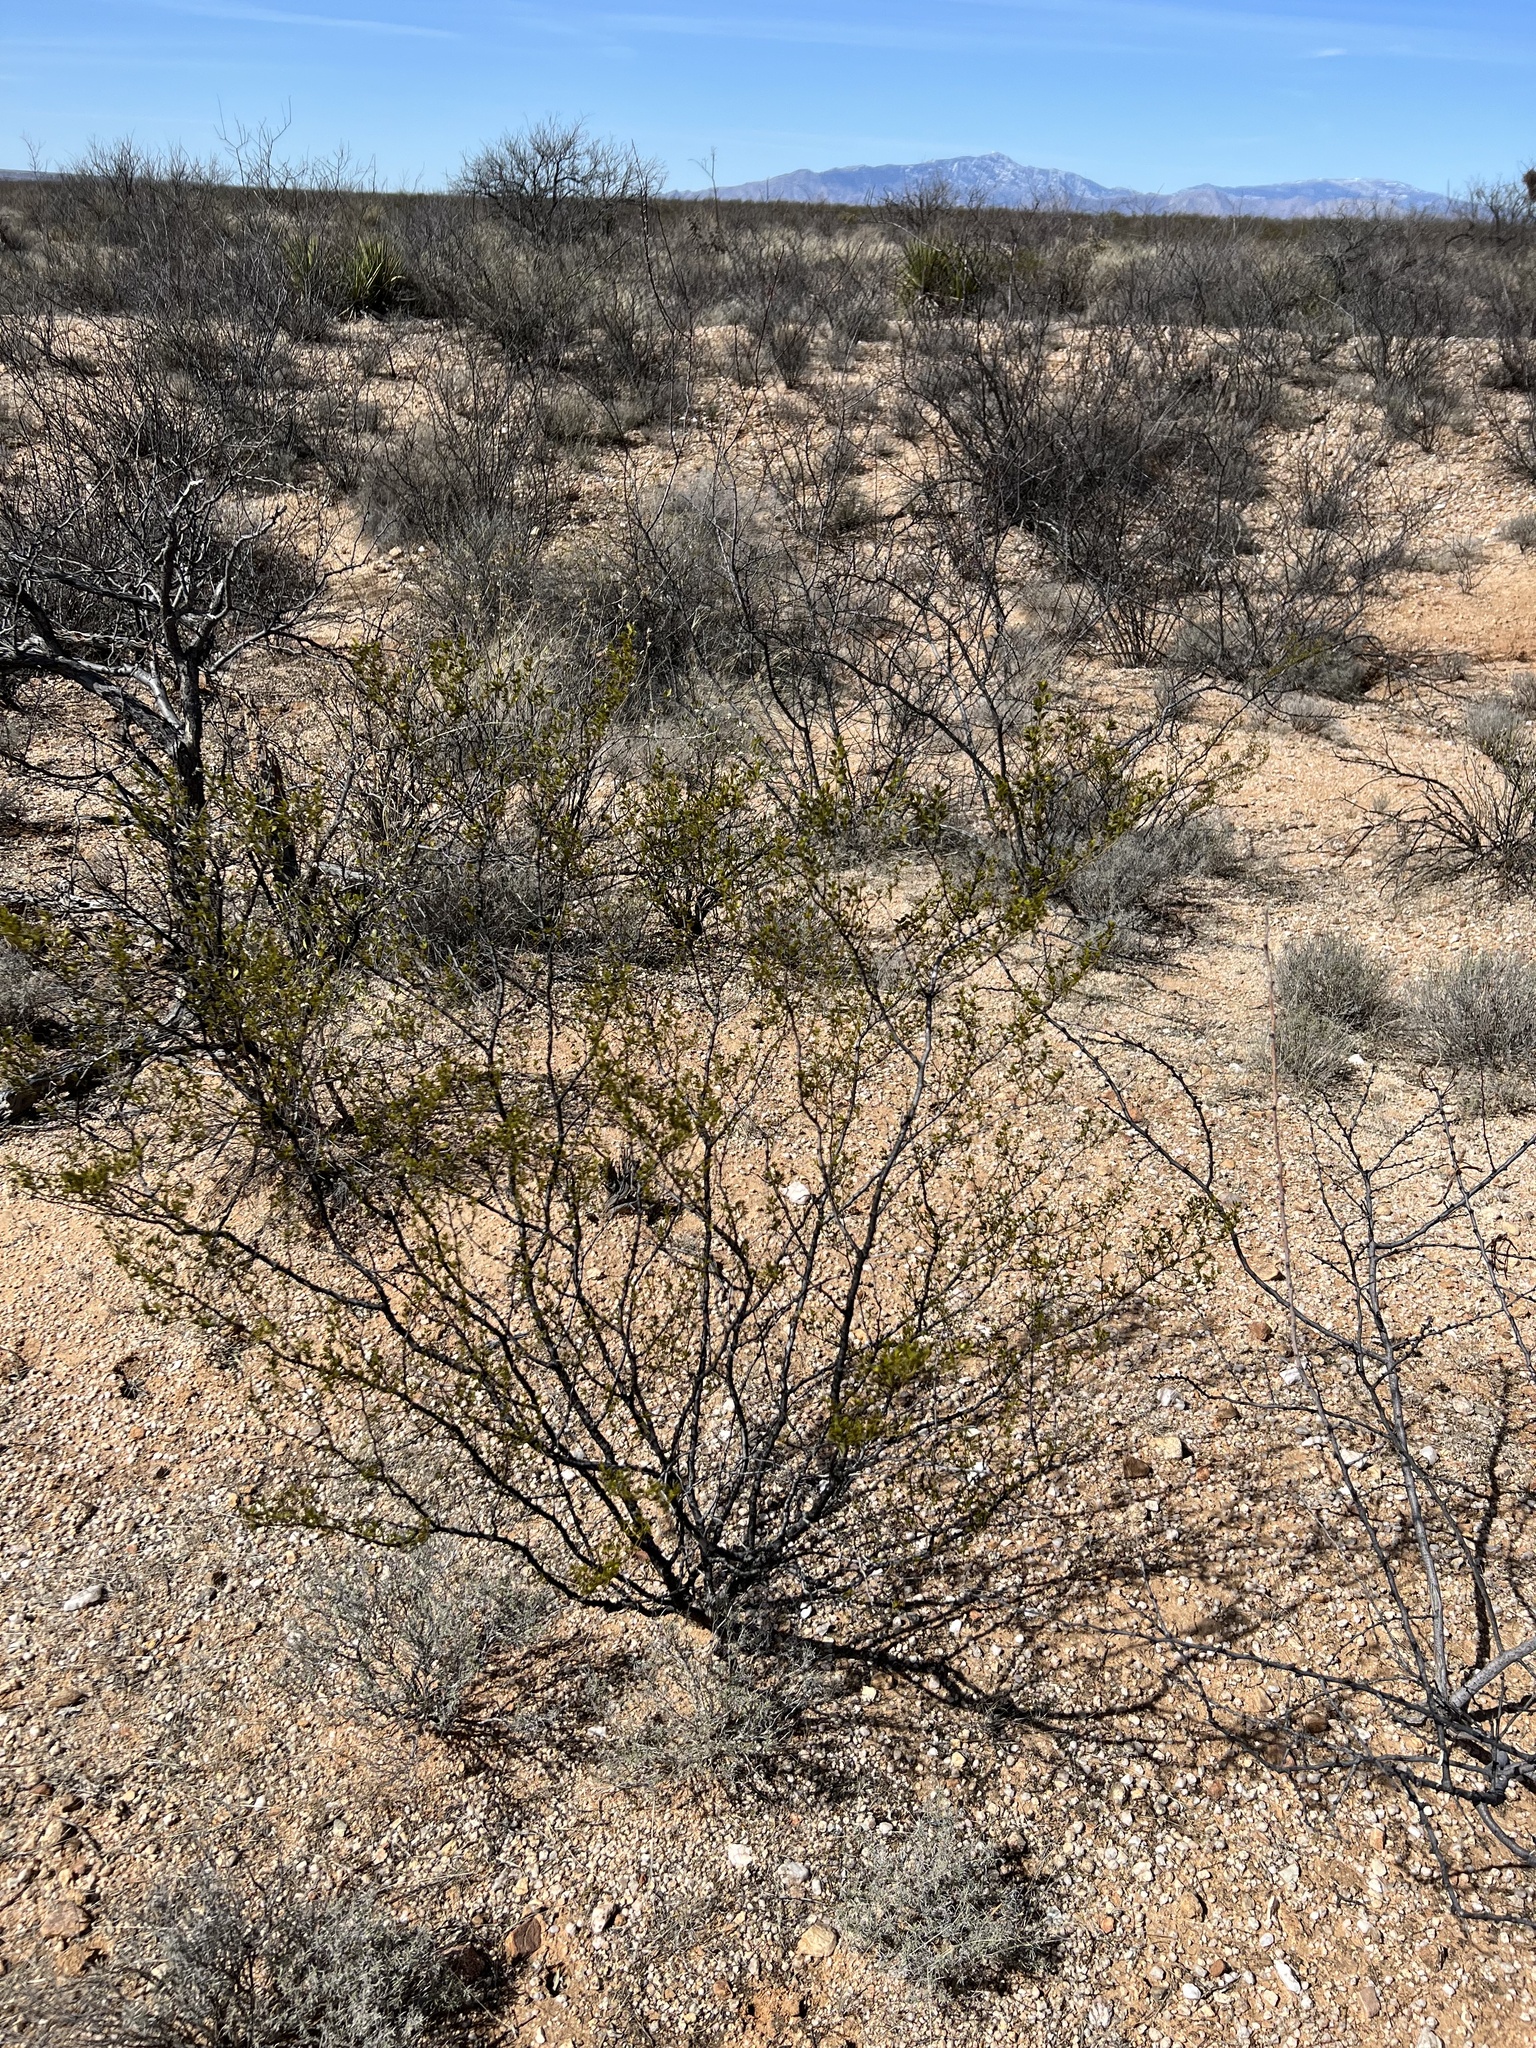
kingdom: Plantae
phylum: Tracheophyta
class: Magnoliopsida
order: Zygophyllales
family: Zygophyllaceae
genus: Larrea
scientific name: Larrea tridentata
